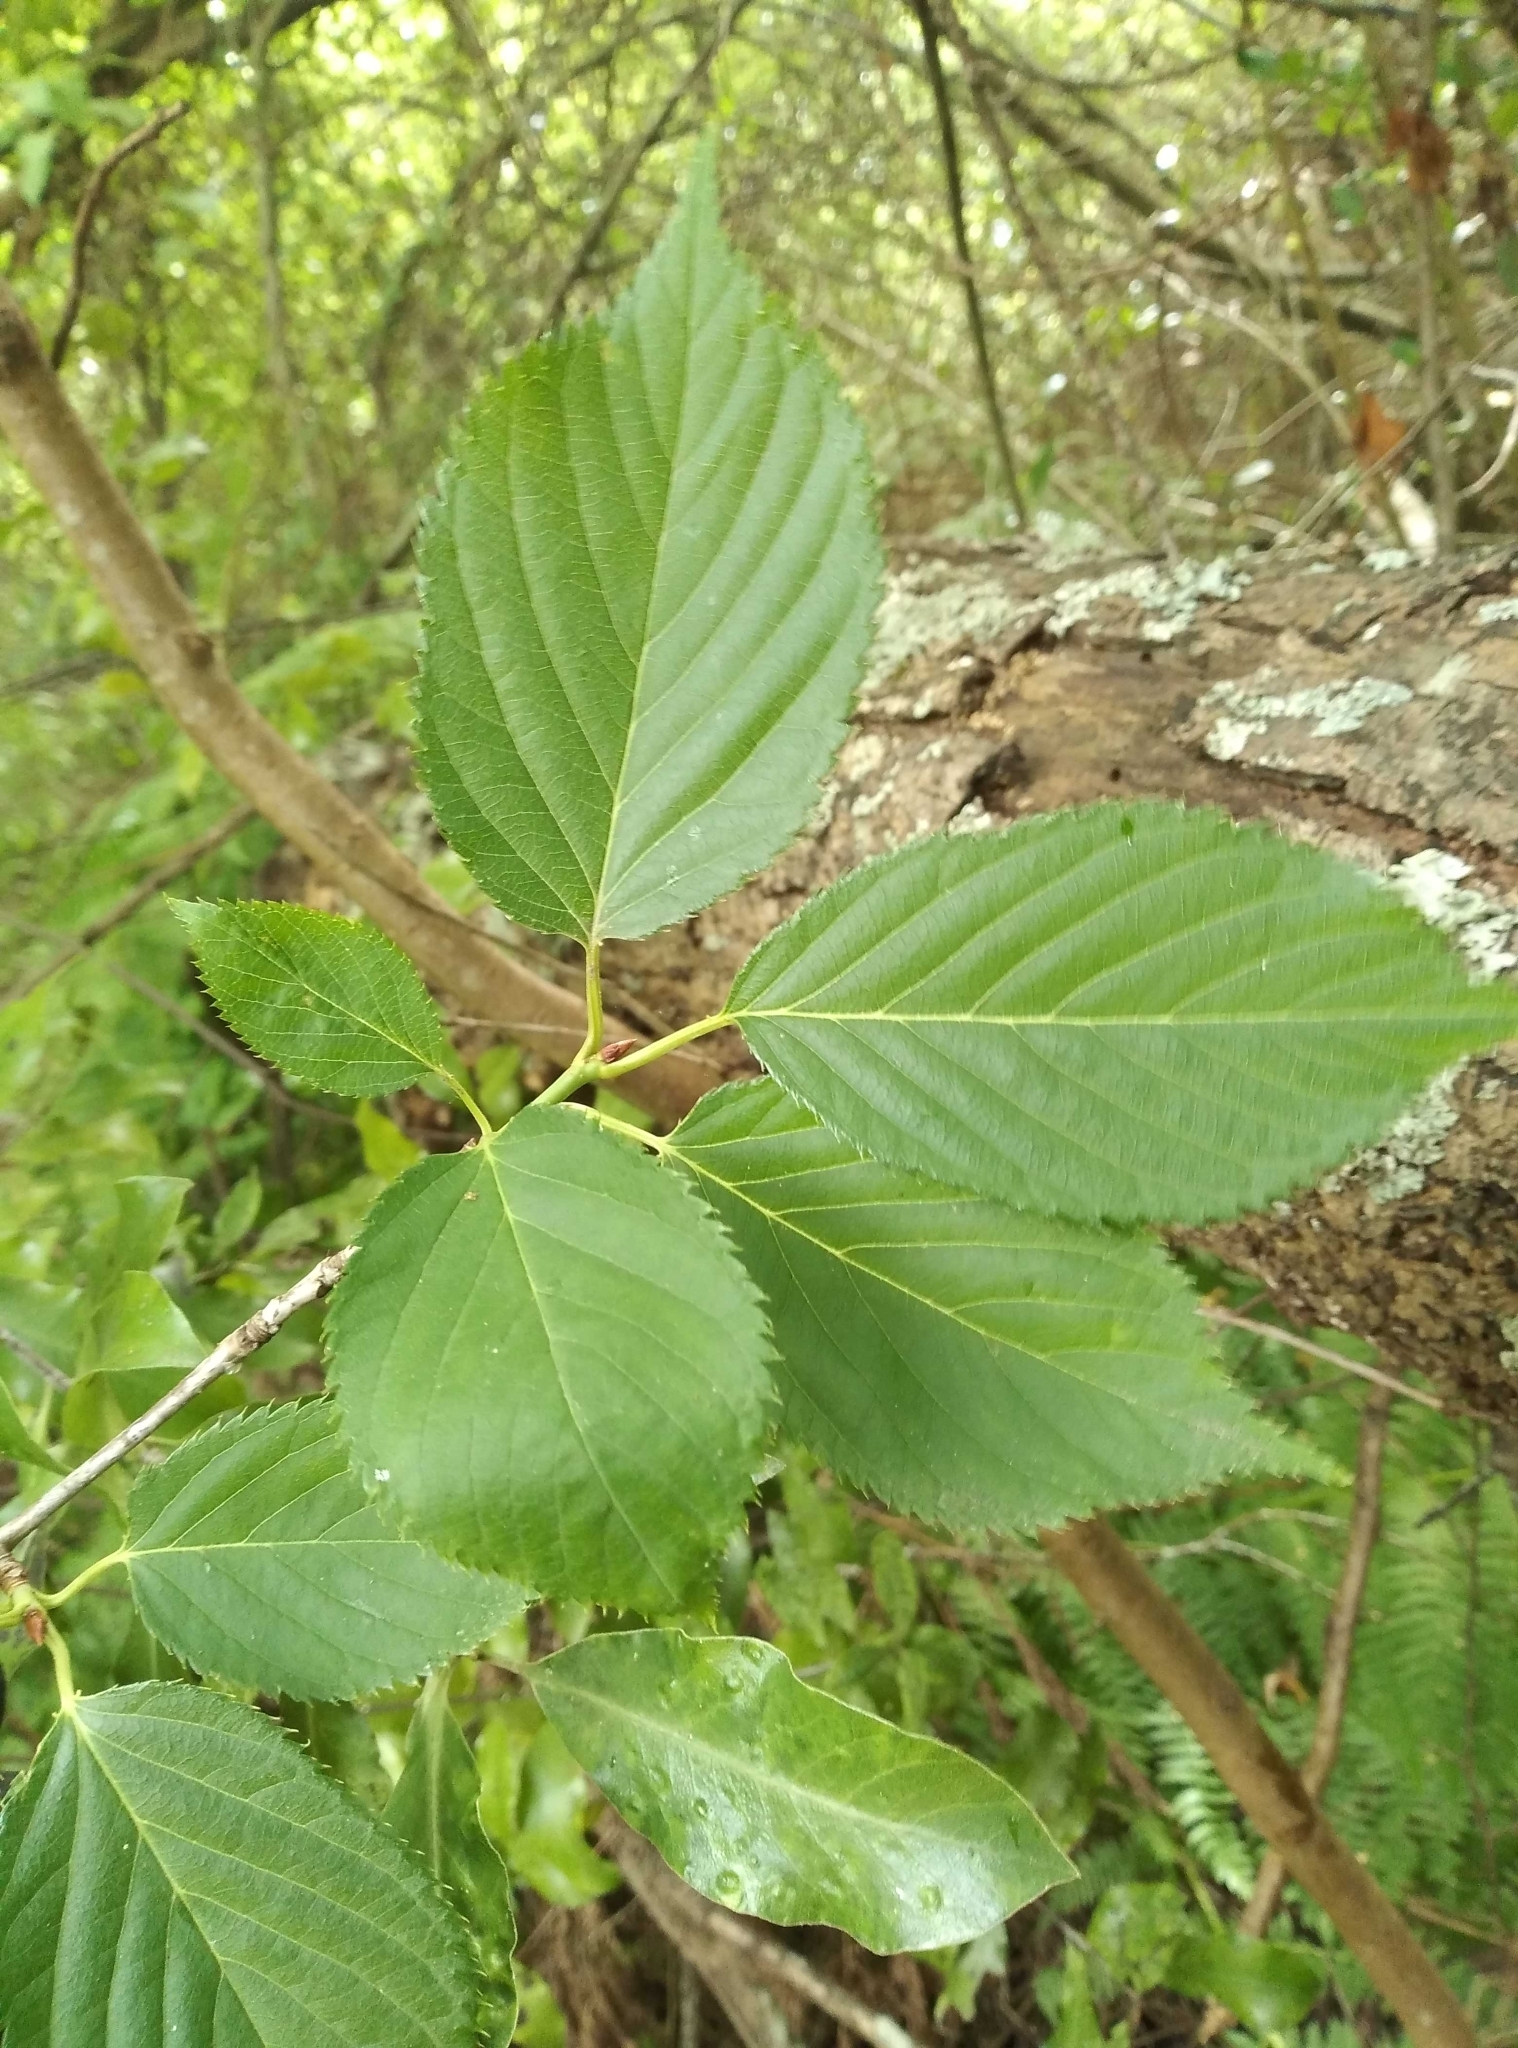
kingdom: Plantae
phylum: Tracheophyta
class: Magnoliopsida
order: Rosales
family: Rosaceae
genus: Prunus
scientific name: Prunus serrulata
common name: Japanese cherry
